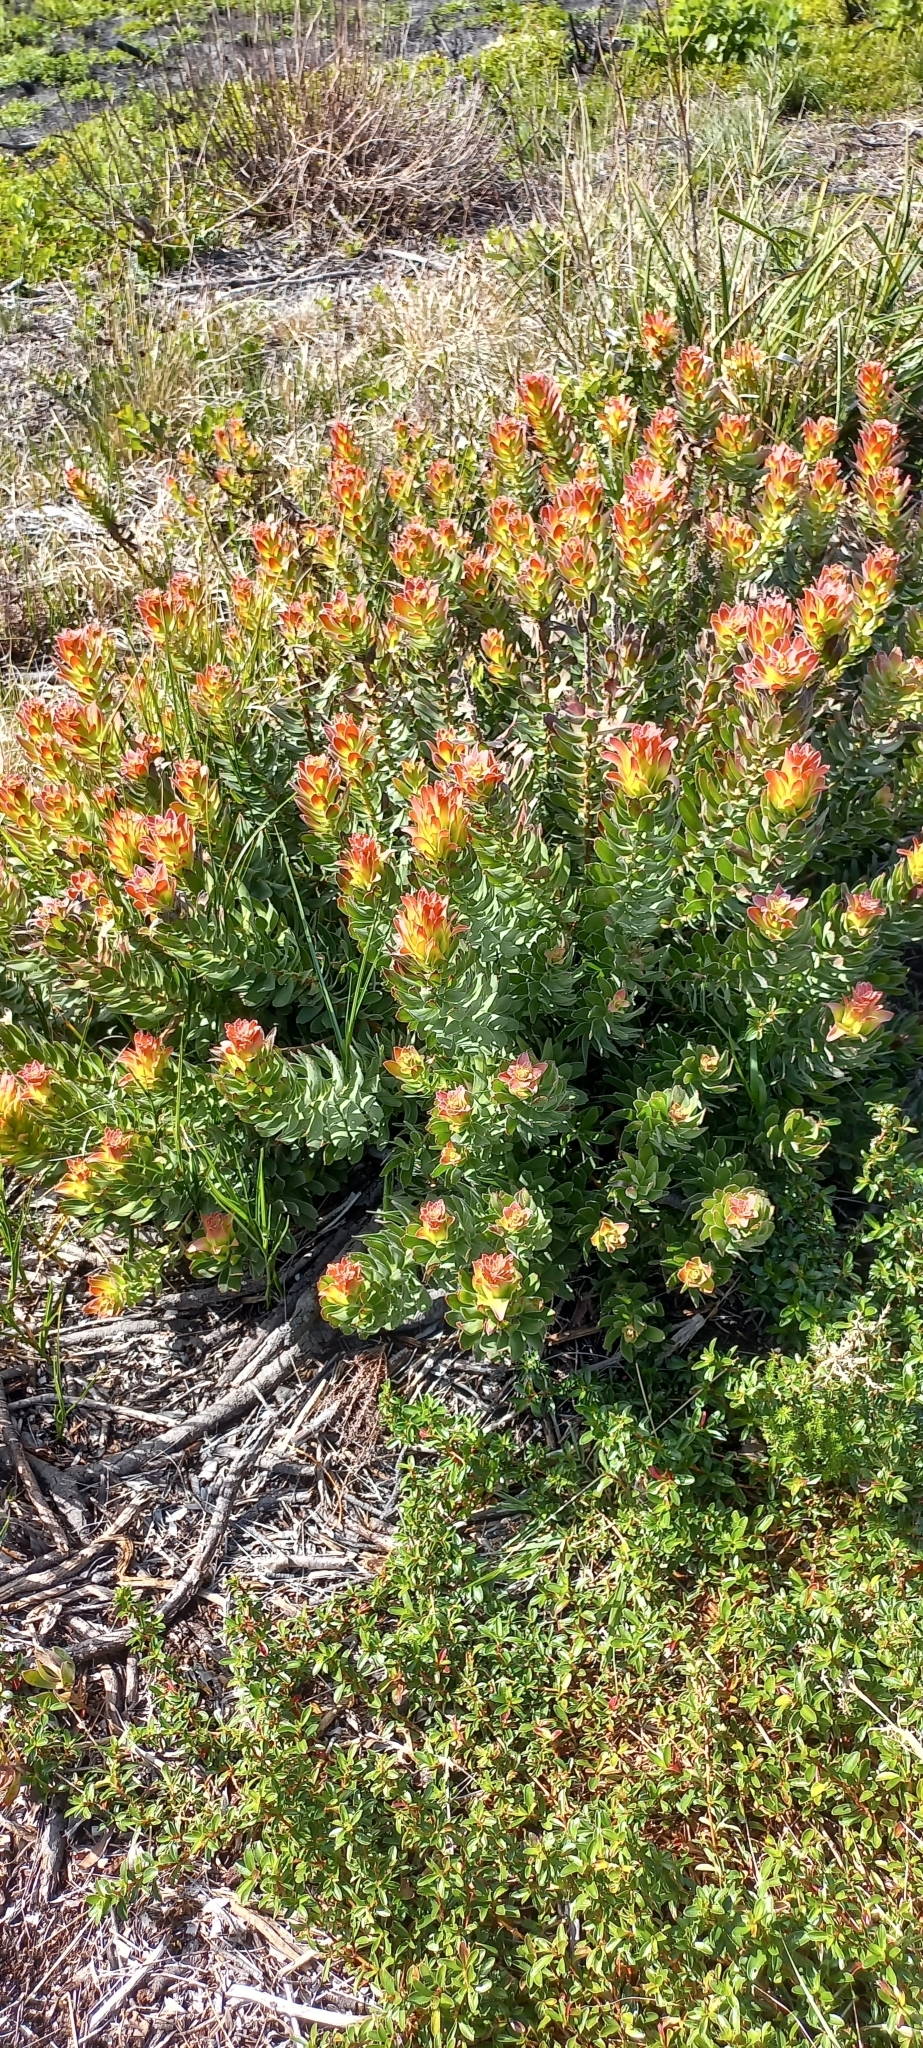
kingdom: Plantae
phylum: Tracheophyta
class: Magnoliopsida
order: Proteales
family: Proteaceae
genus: Mimetes
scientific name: Mimetes cucullatus
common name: Common pagoda
